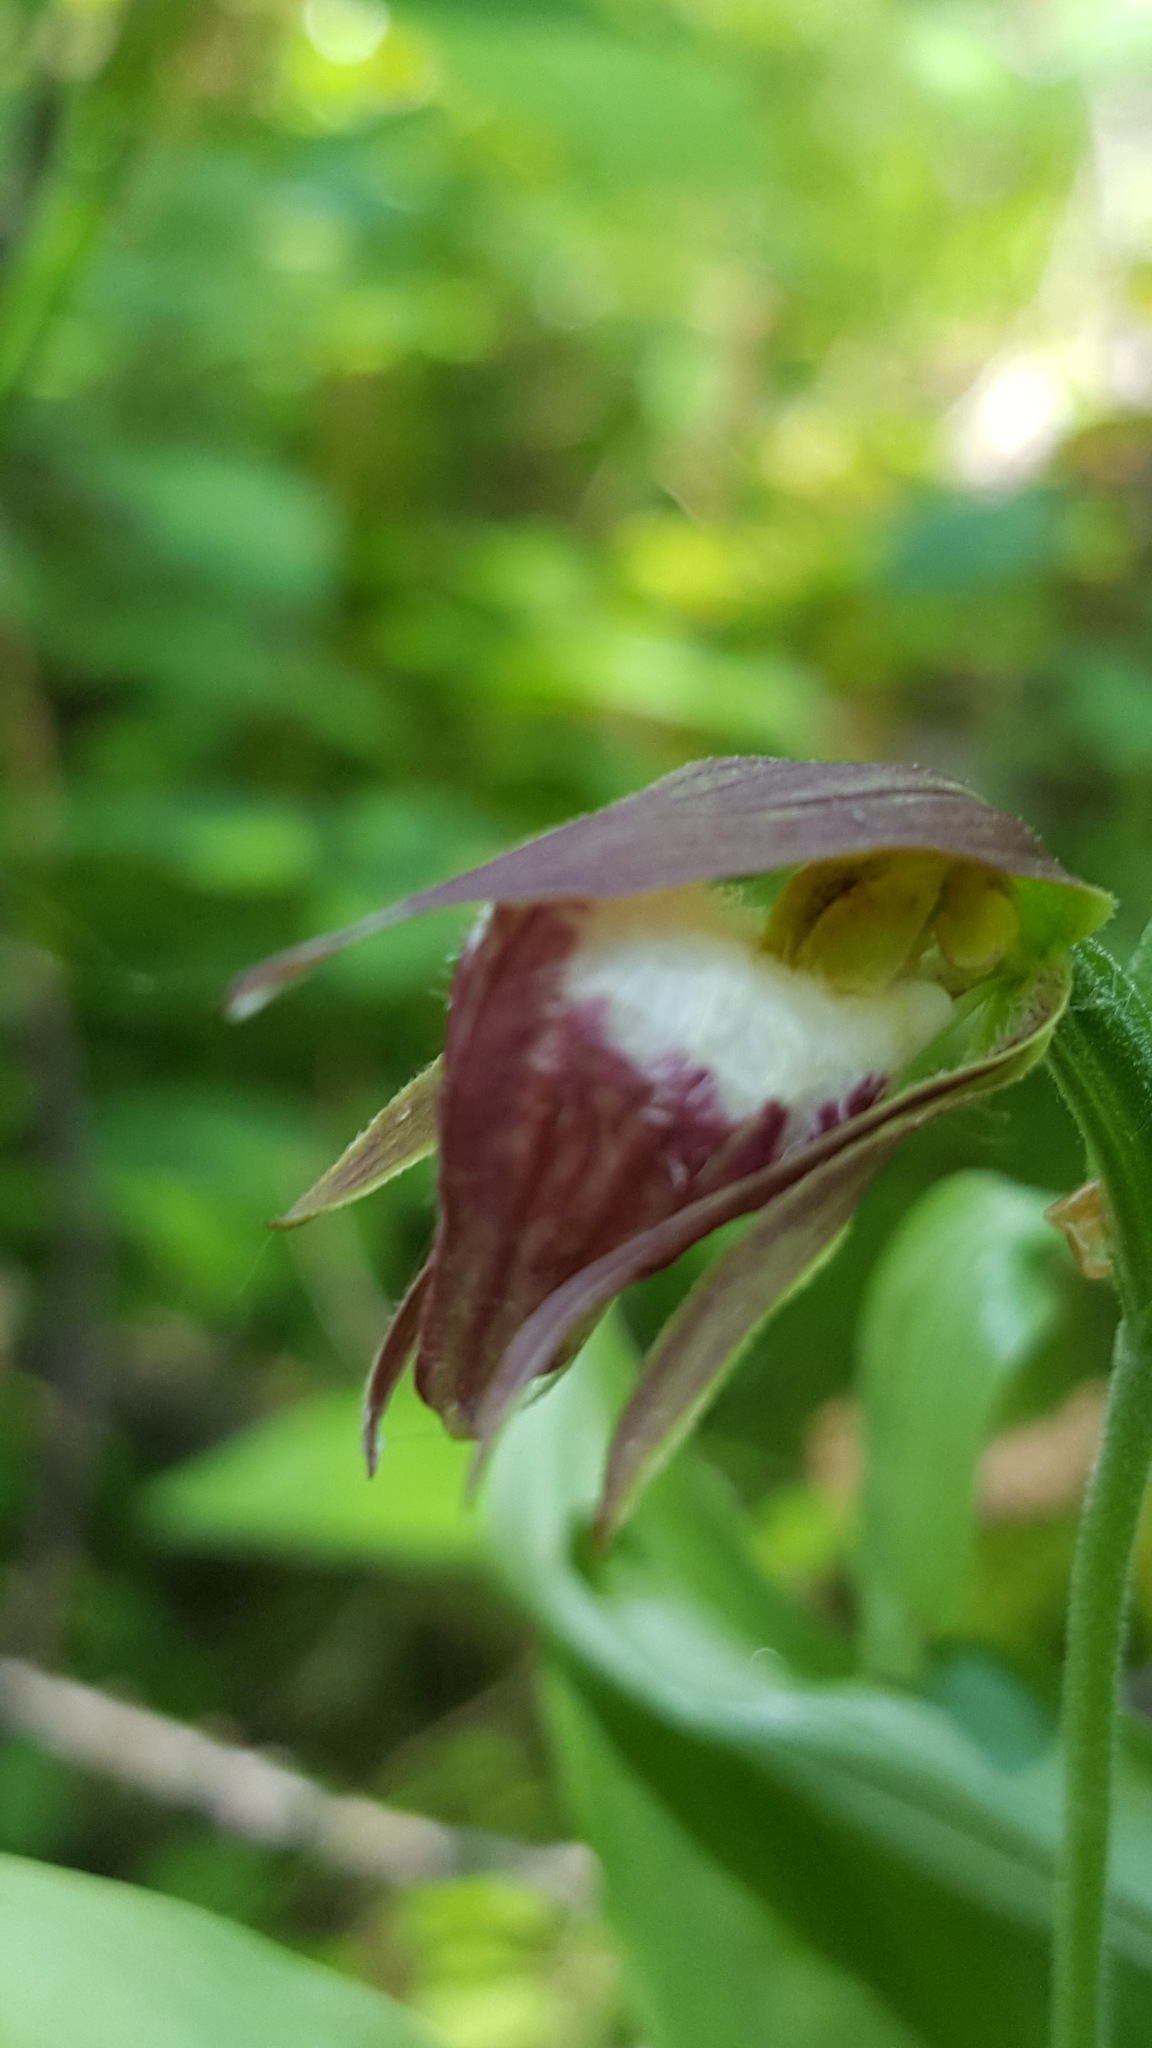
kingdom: Plantae
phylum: Tracheophyta
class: Liliopsida
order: Asparagales
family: Orchidaceae
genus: Cypripedium
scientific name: Cypripedium arietinum
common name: Ram's-head
